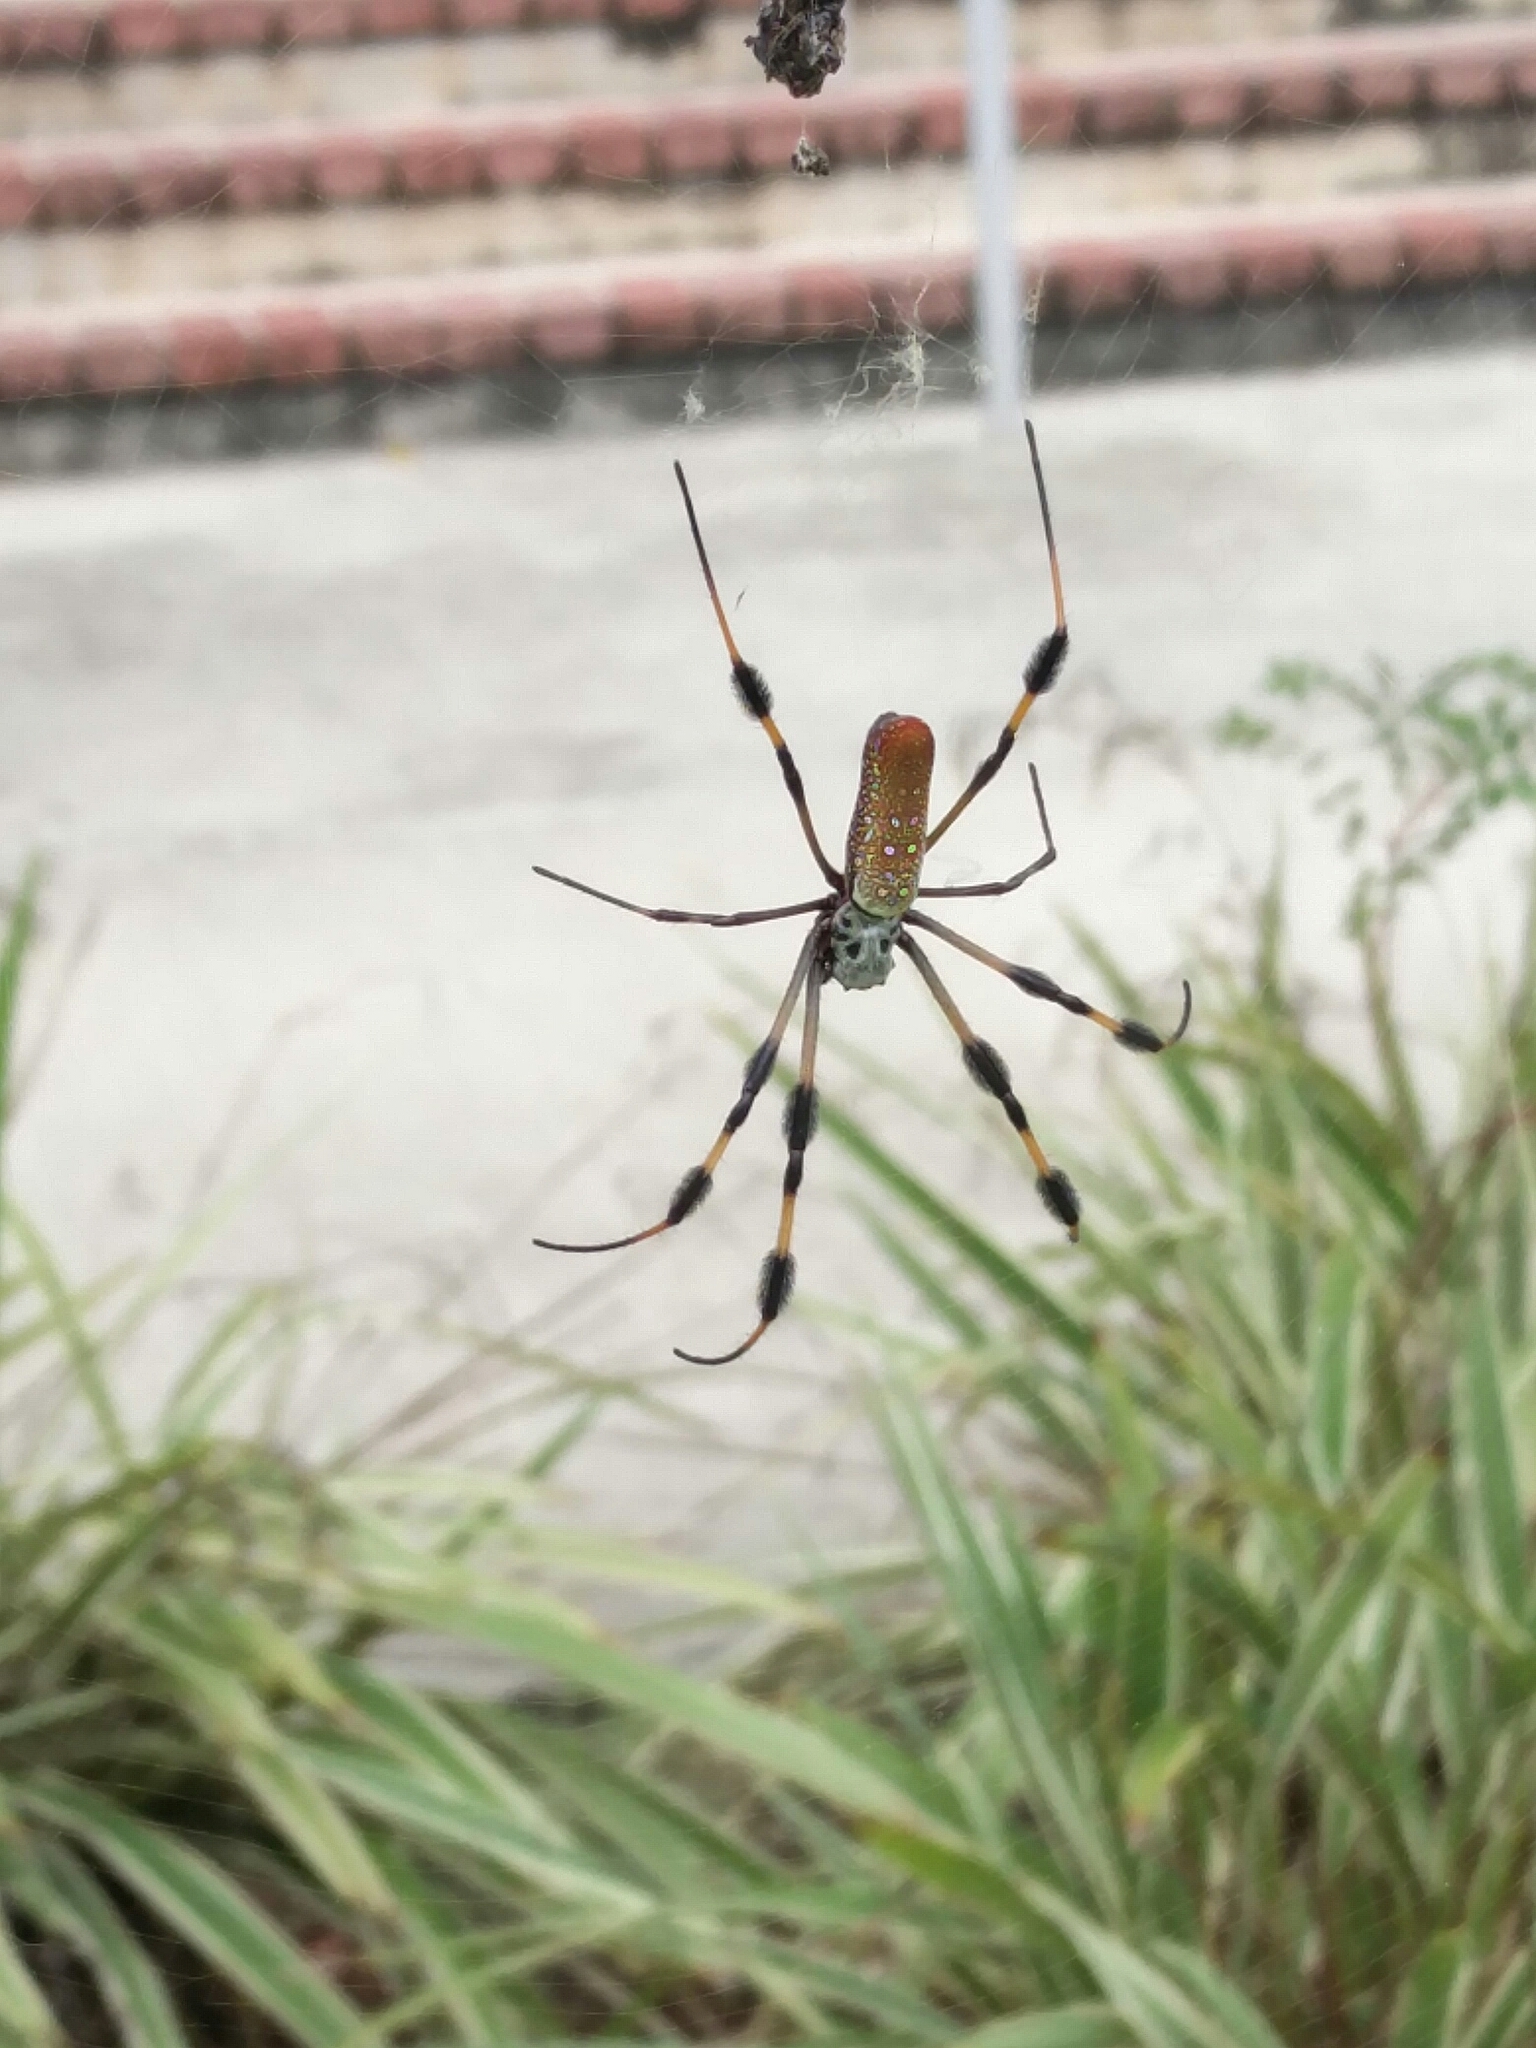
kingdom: Animalia
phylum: Arthropoda
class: Arachnida
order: Araneae
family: Araneidae
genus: Trichonephila
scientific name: Trichonephila clavipes
